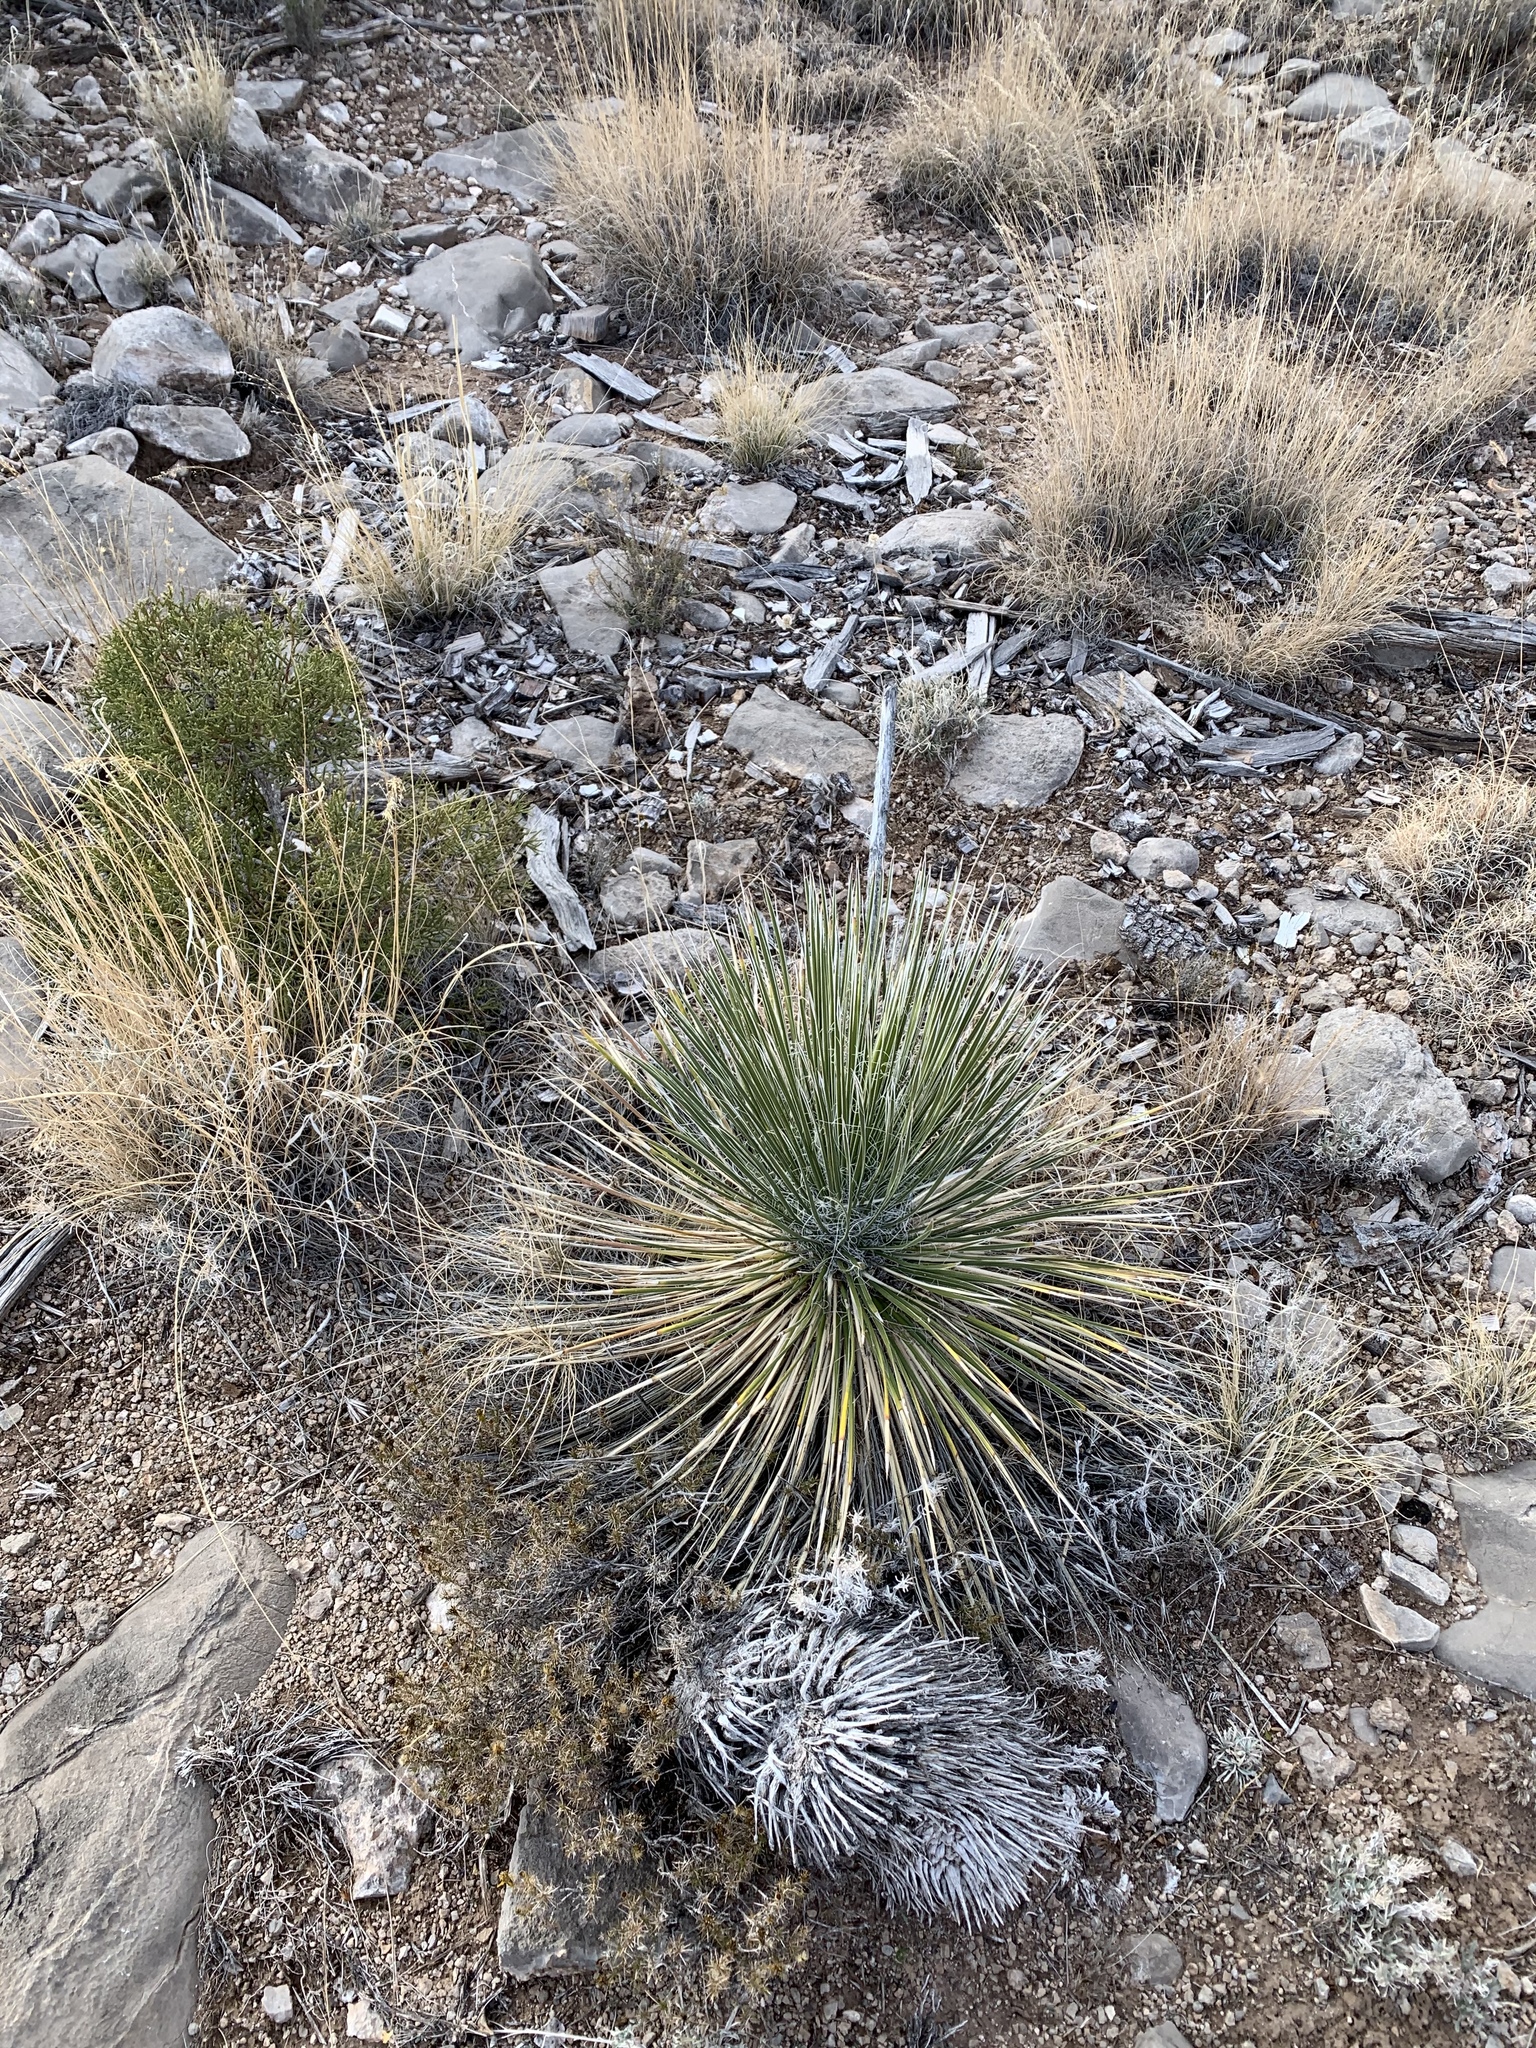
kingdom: Plantae
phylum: Tracheophyta
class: Liliopsida
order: Asparagales
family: Asparagaceae
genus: Yucca
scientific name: Yucca elata
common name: Palmella
